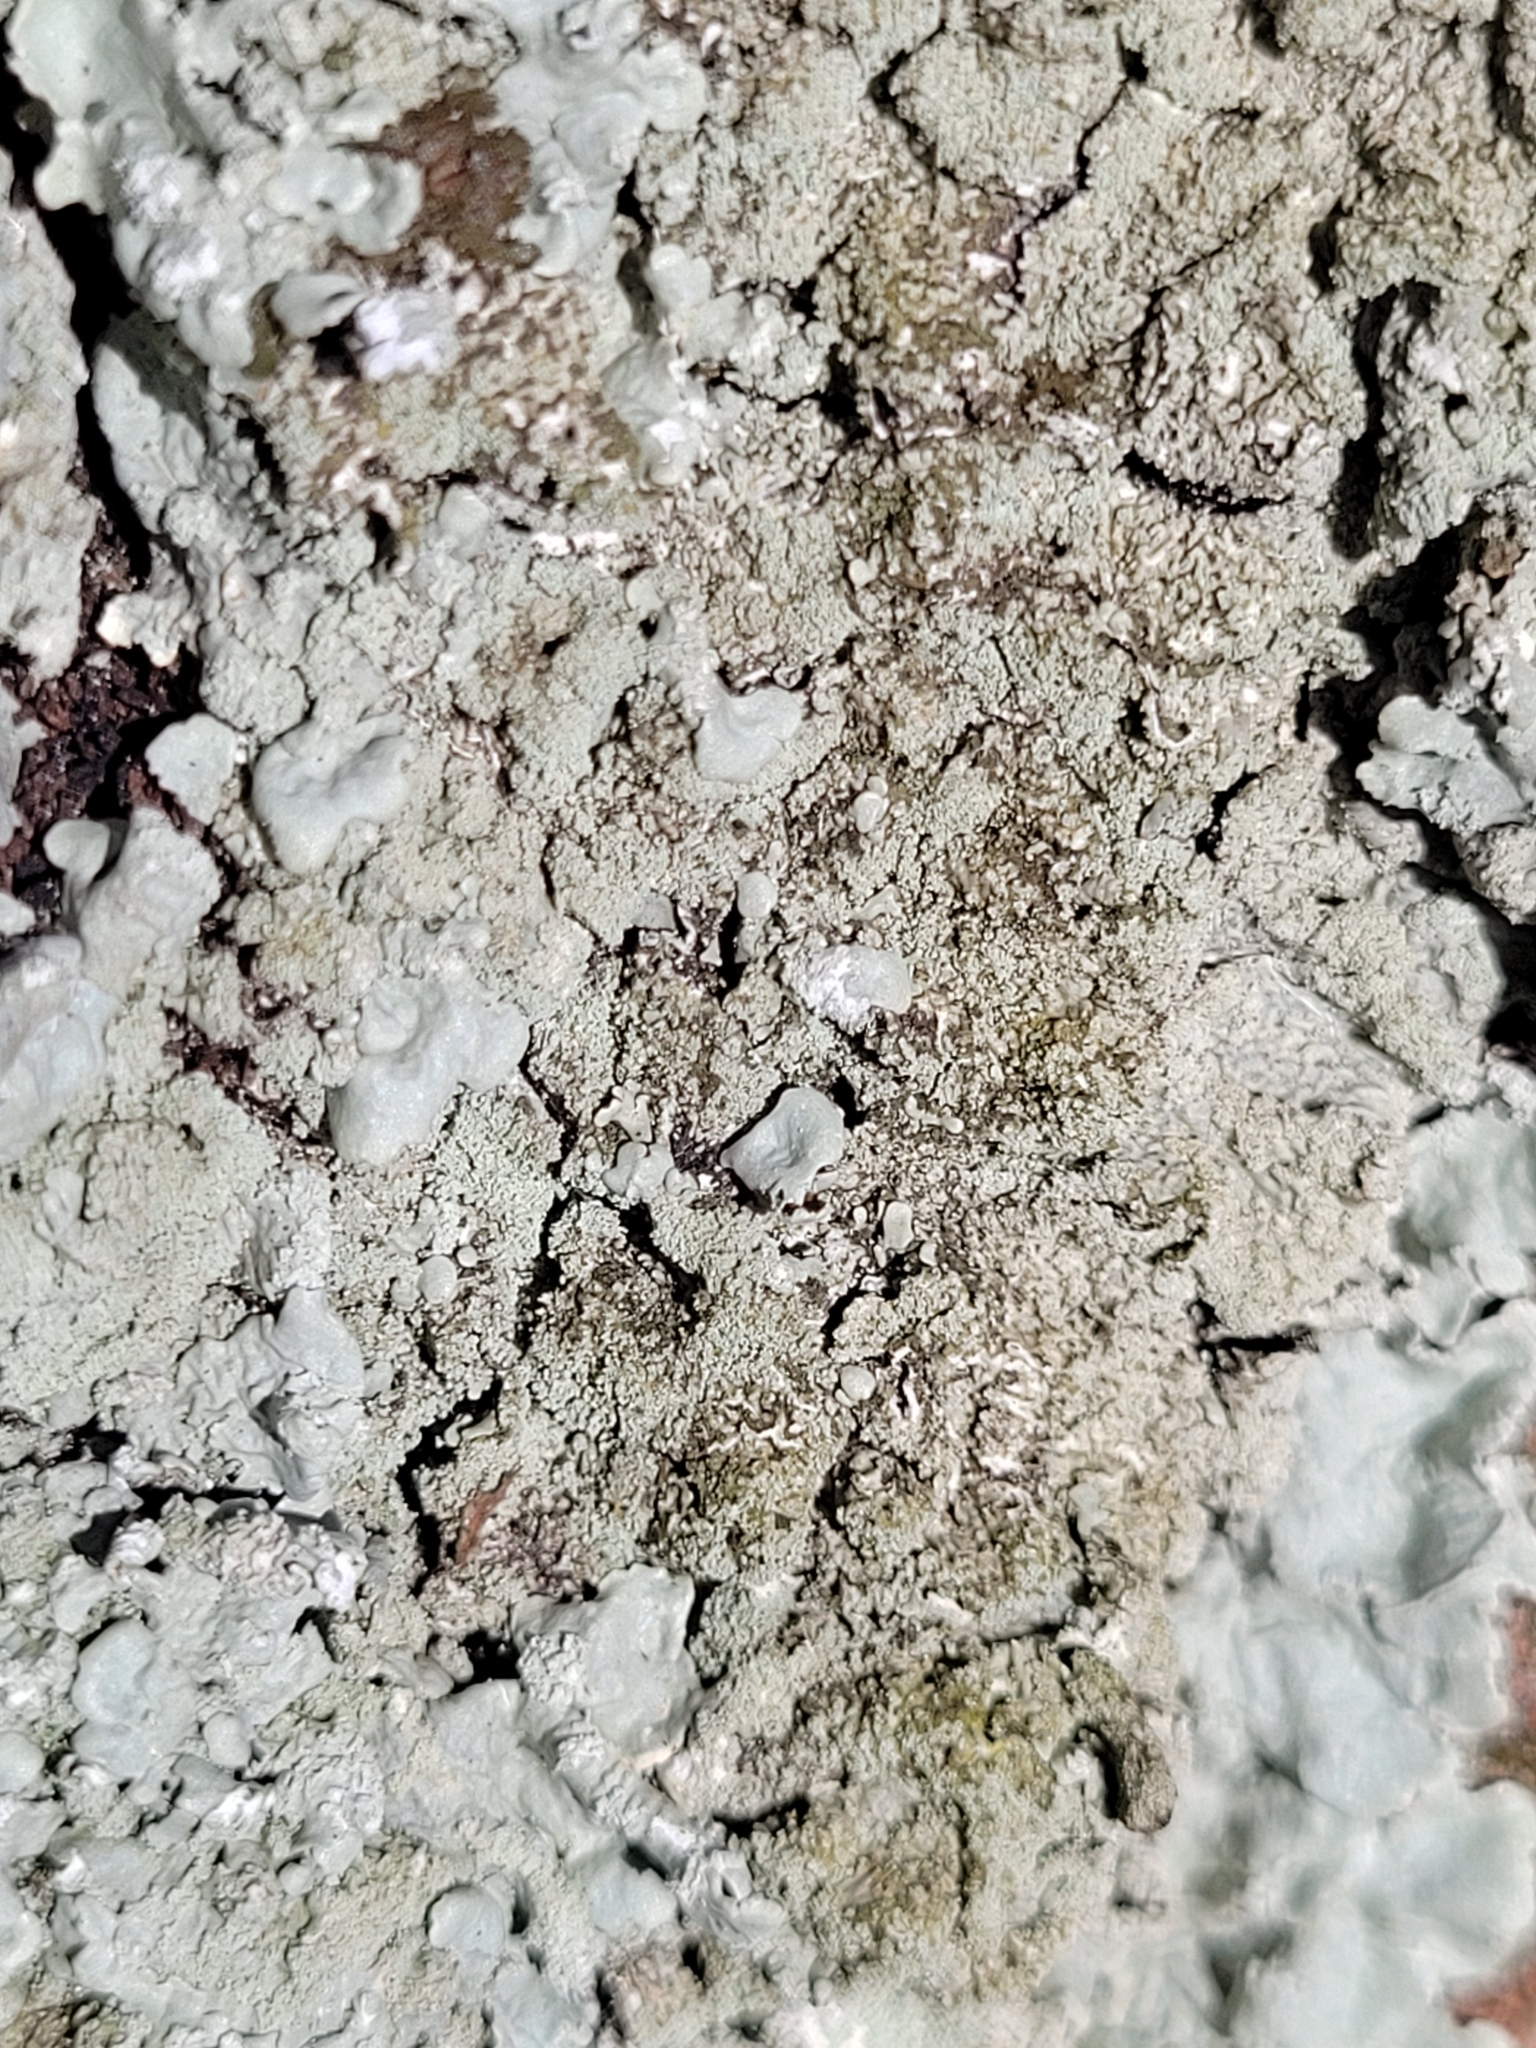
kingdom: Fungi
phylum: Ascomycota
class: Lecanoromycetes
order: Lecanorales
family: Parmeliaceae
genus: Flavoparmelia
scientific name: Flavoparmelia soredians
